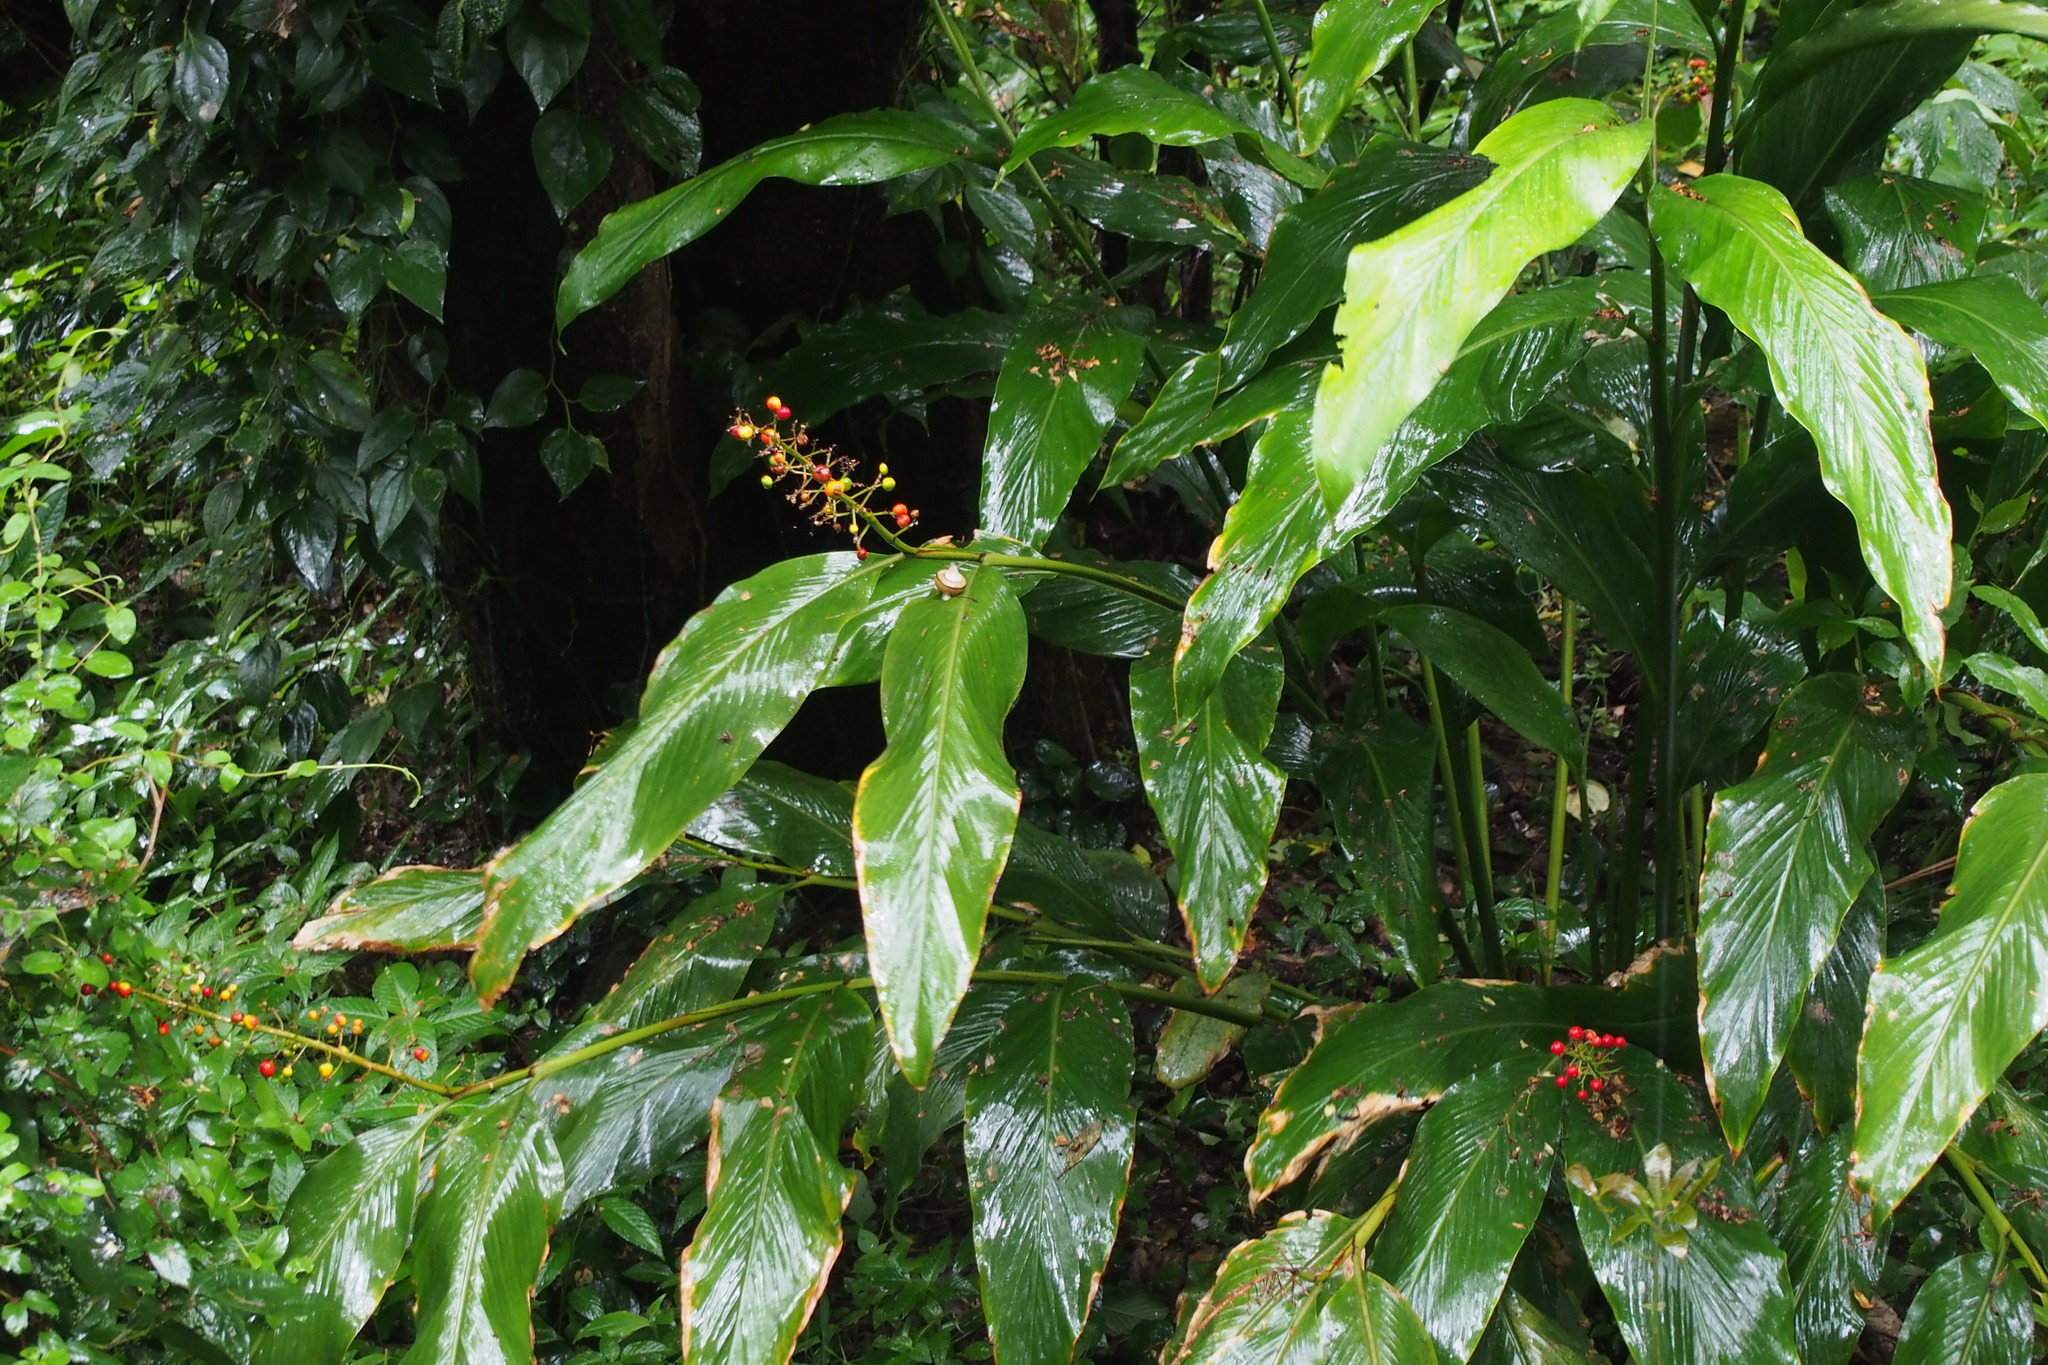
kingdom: Plantae
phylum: Tracheophyta
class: Liliopsida
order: Zingiberales
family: Zingiberaceae
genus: Alpinia
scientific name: Alpinia intermedia
